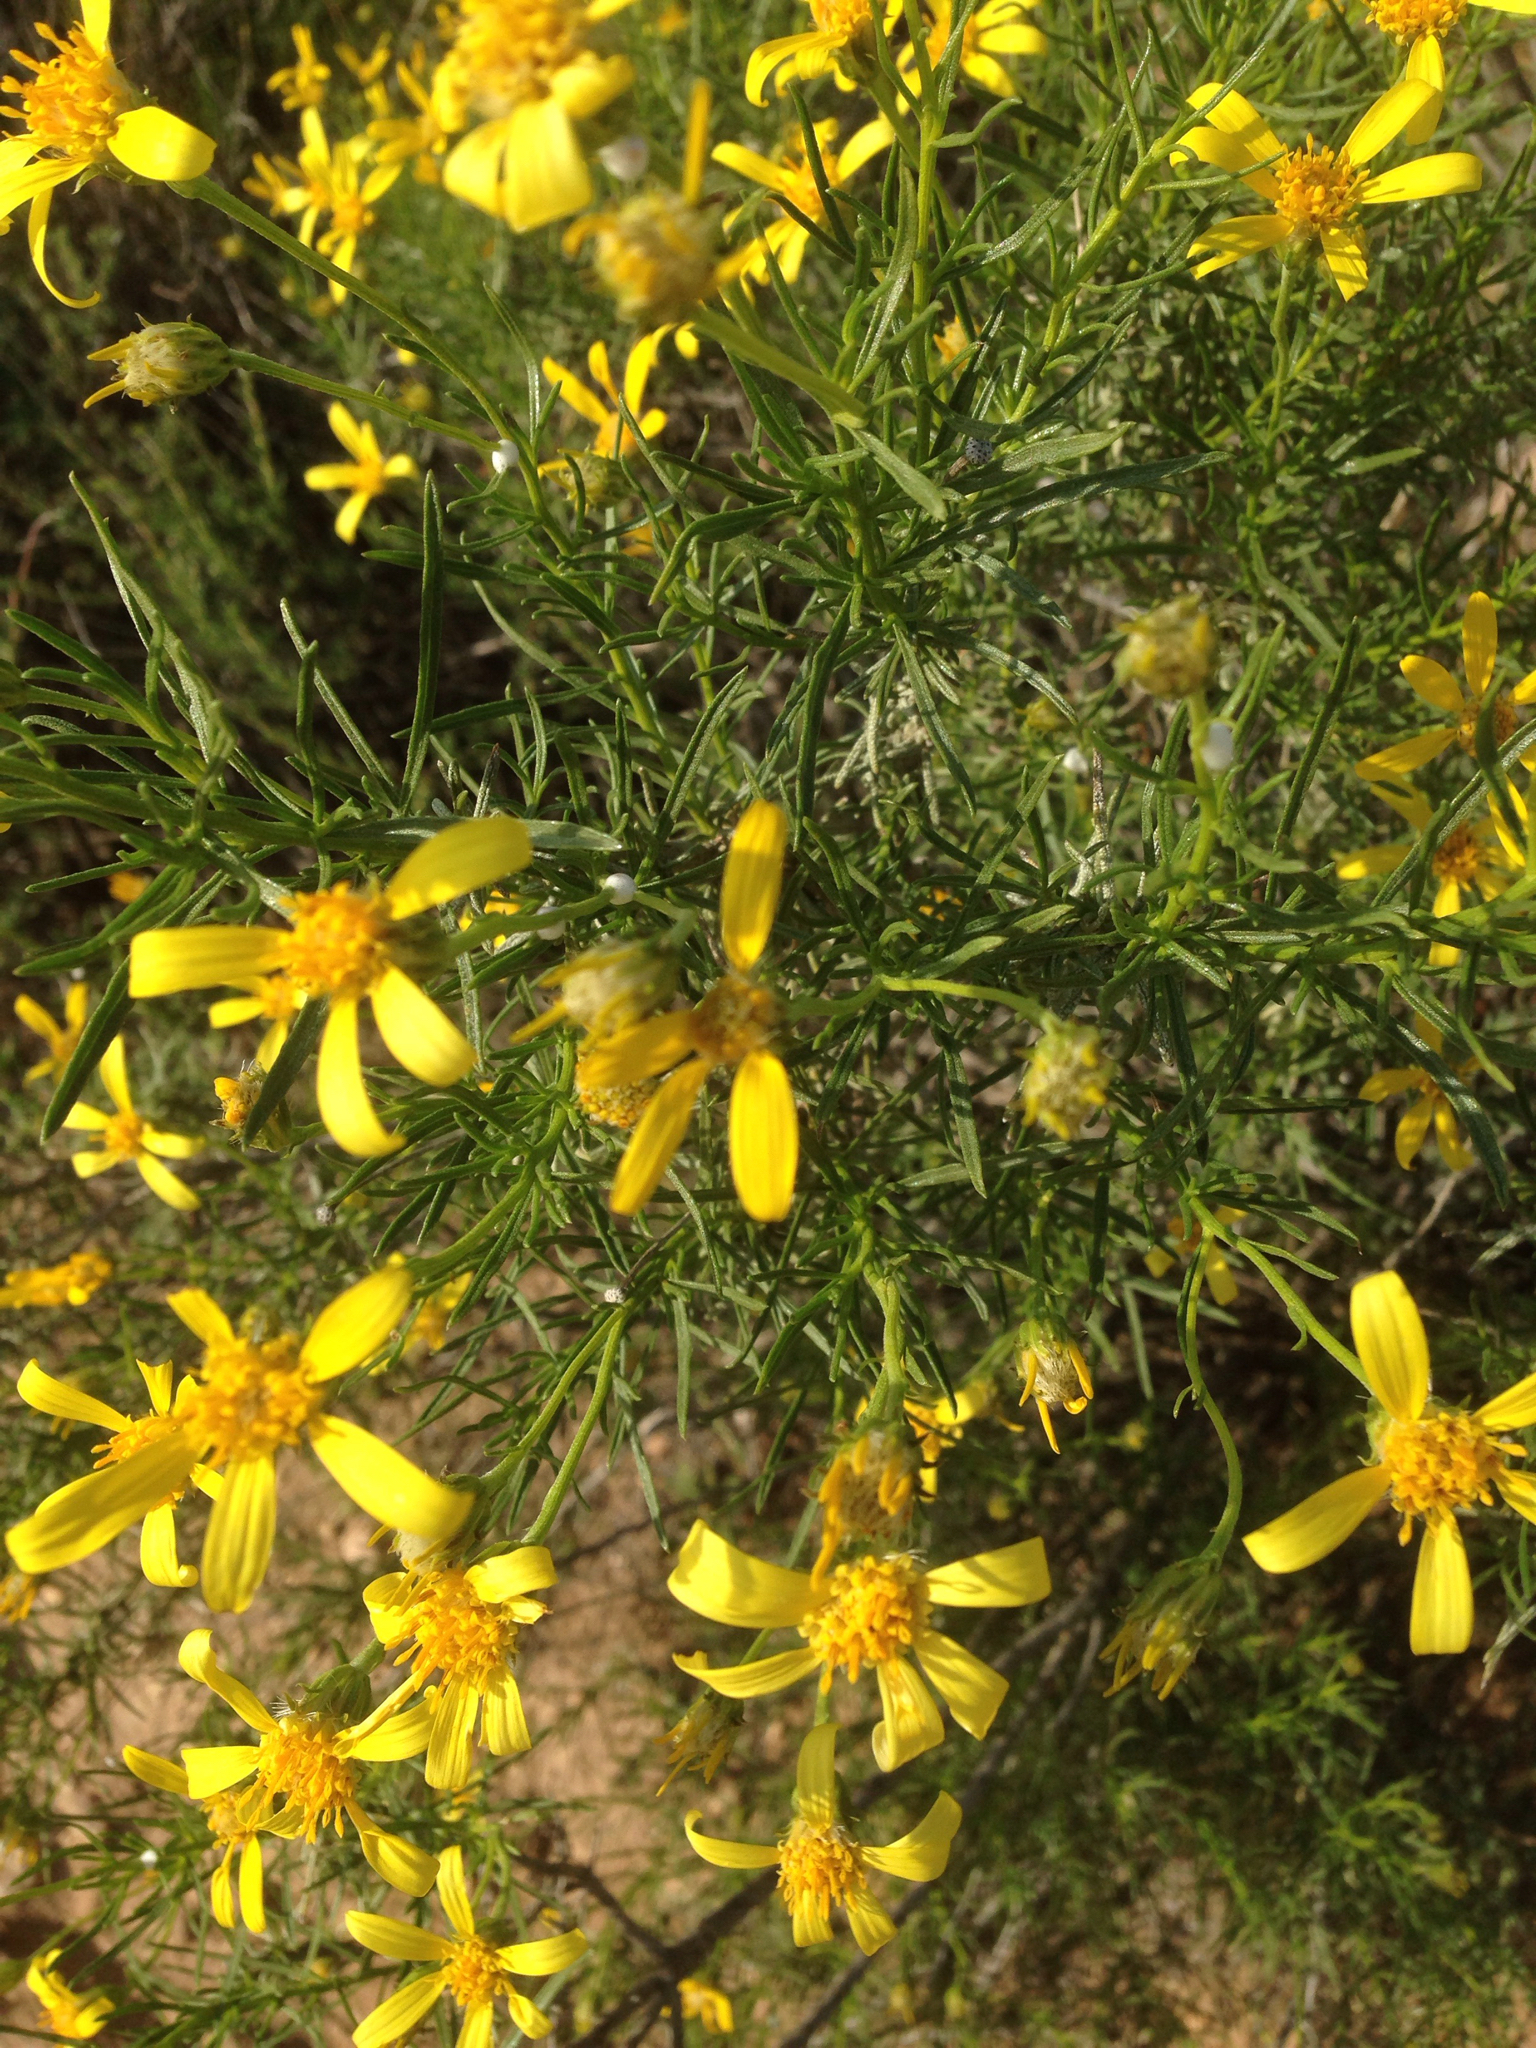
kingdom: Plantae
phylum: Tracheophyta
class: Magnoliopsida
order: Asterales
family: Asteraceae
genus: Ericameria
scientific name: Ericameria linearifolia
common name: Interior goldenbush
